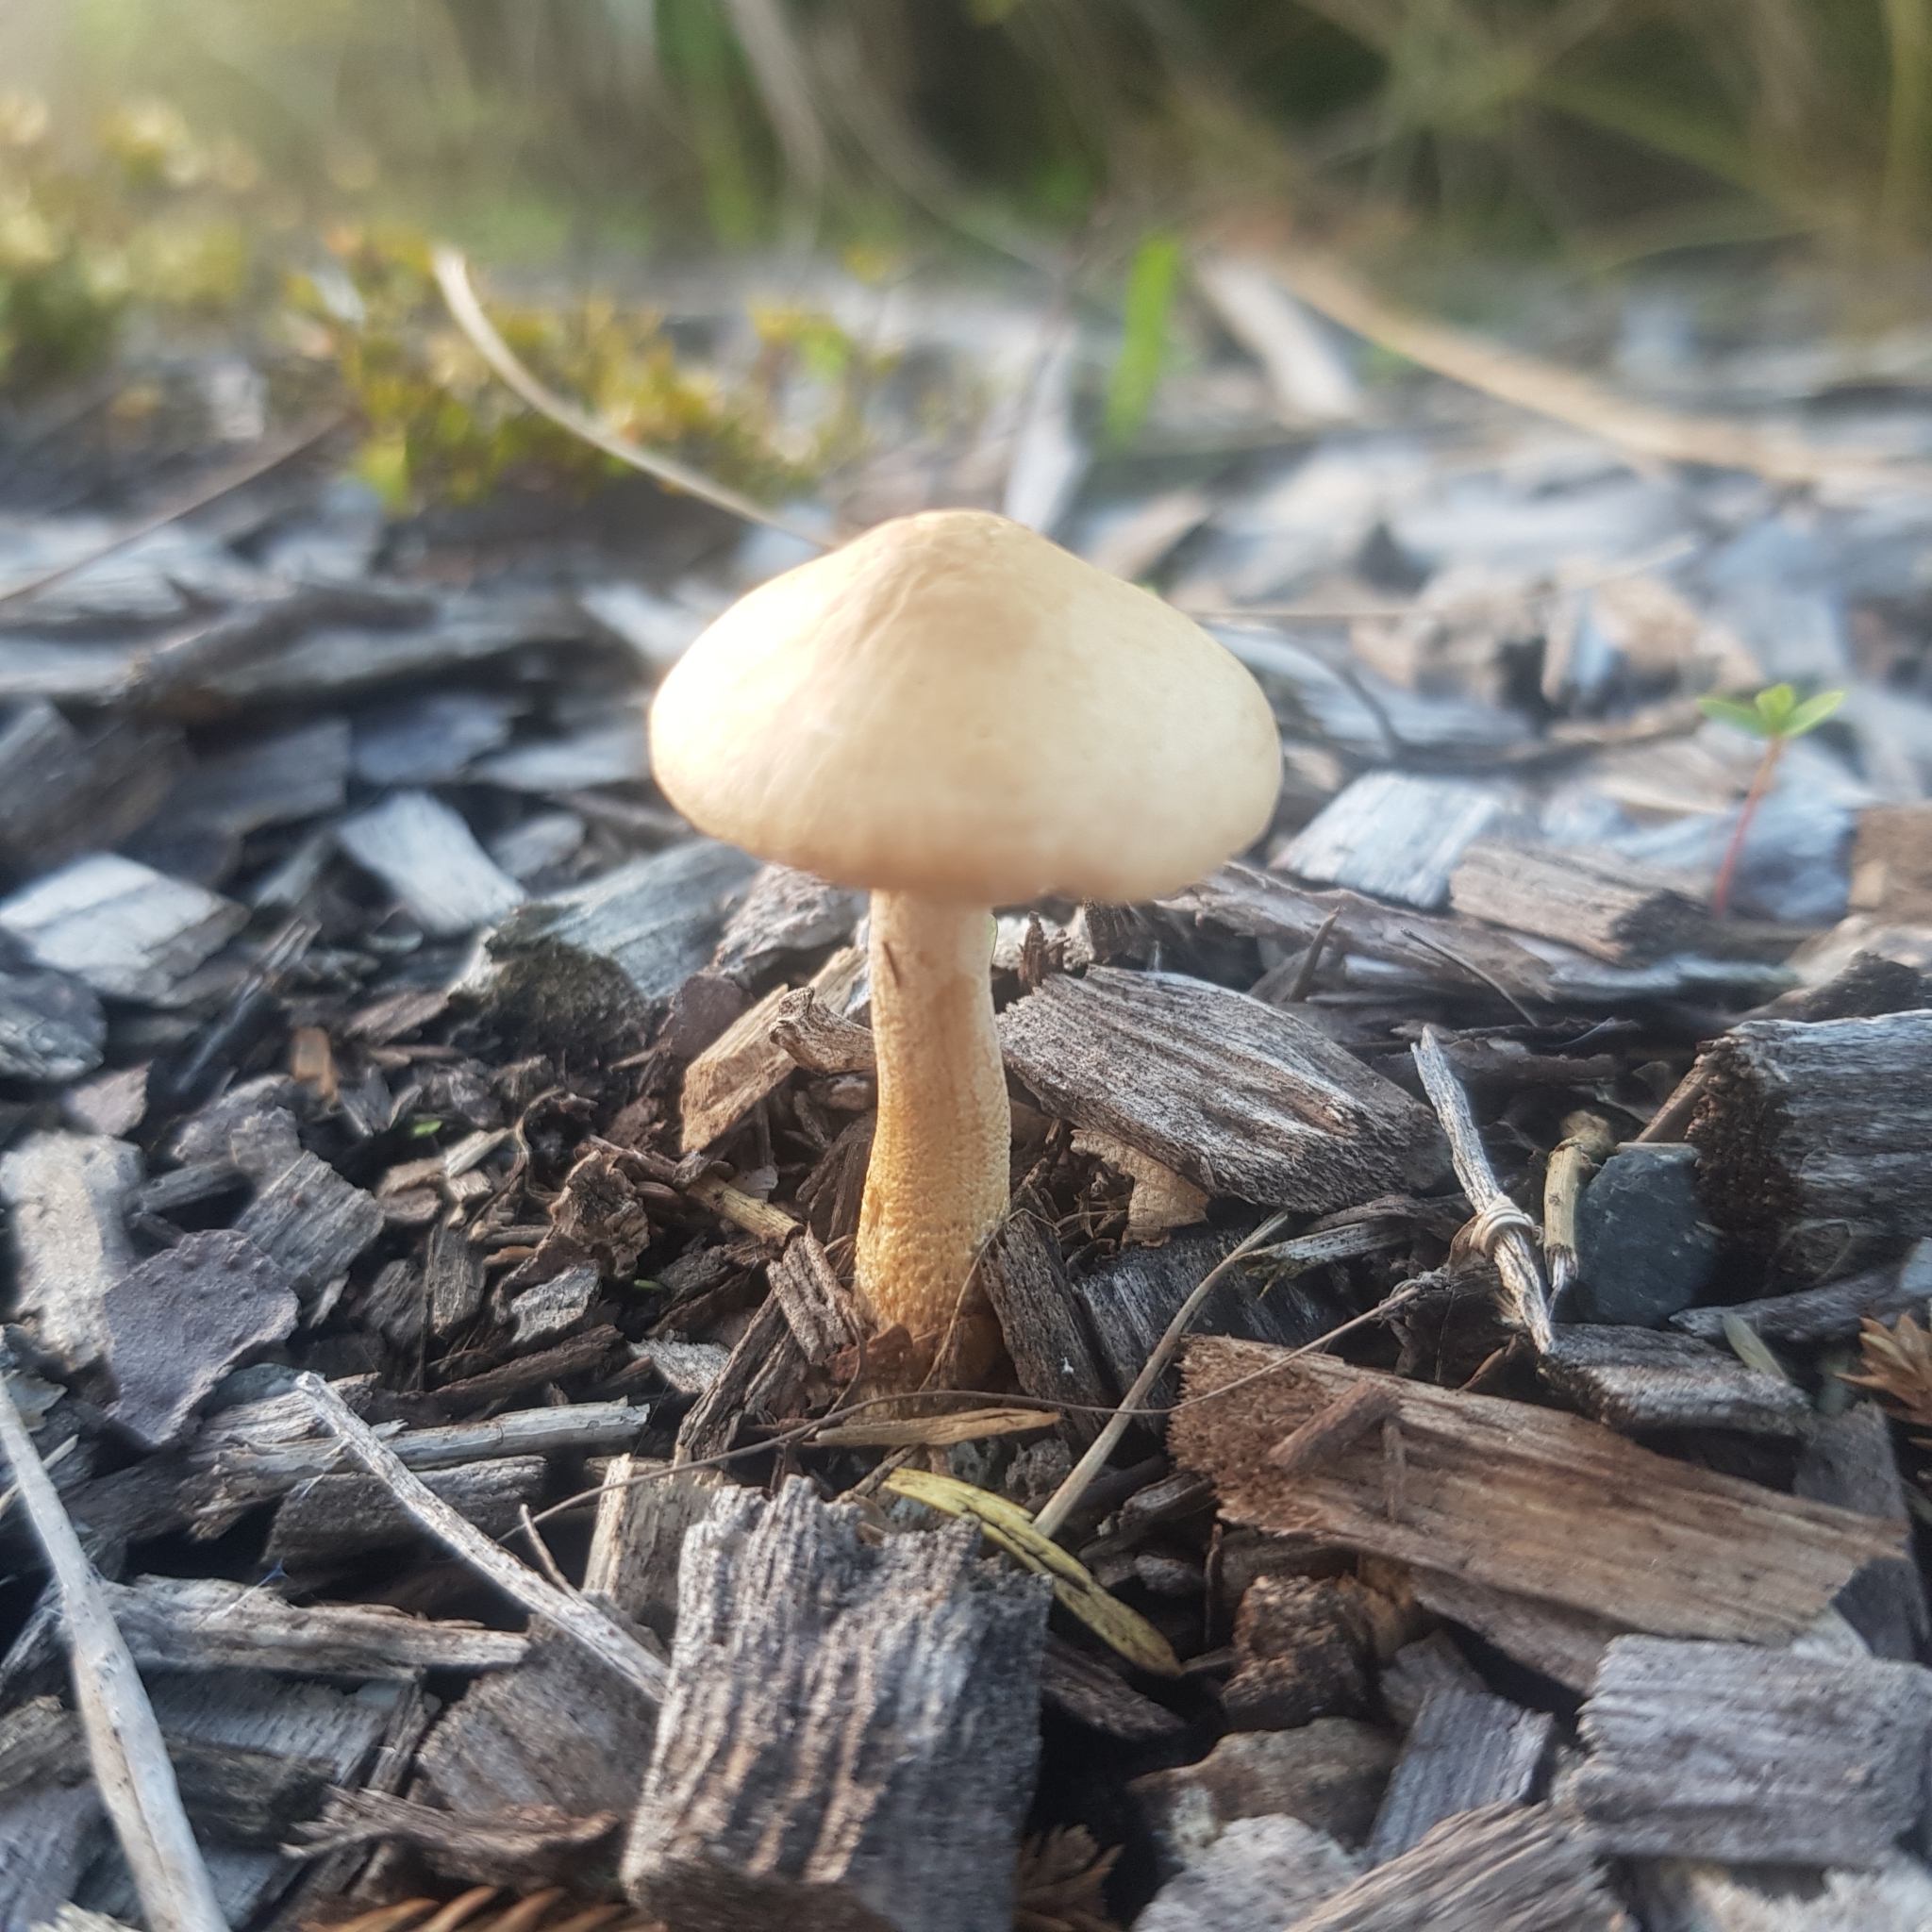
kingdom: Fungi
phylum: Basidiomycota
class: Agaricomycetes
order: Agaricales
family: Strophariaceae
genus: Agrocybe
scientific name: Agrocybe putaminum
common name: Mulch fieldcap
